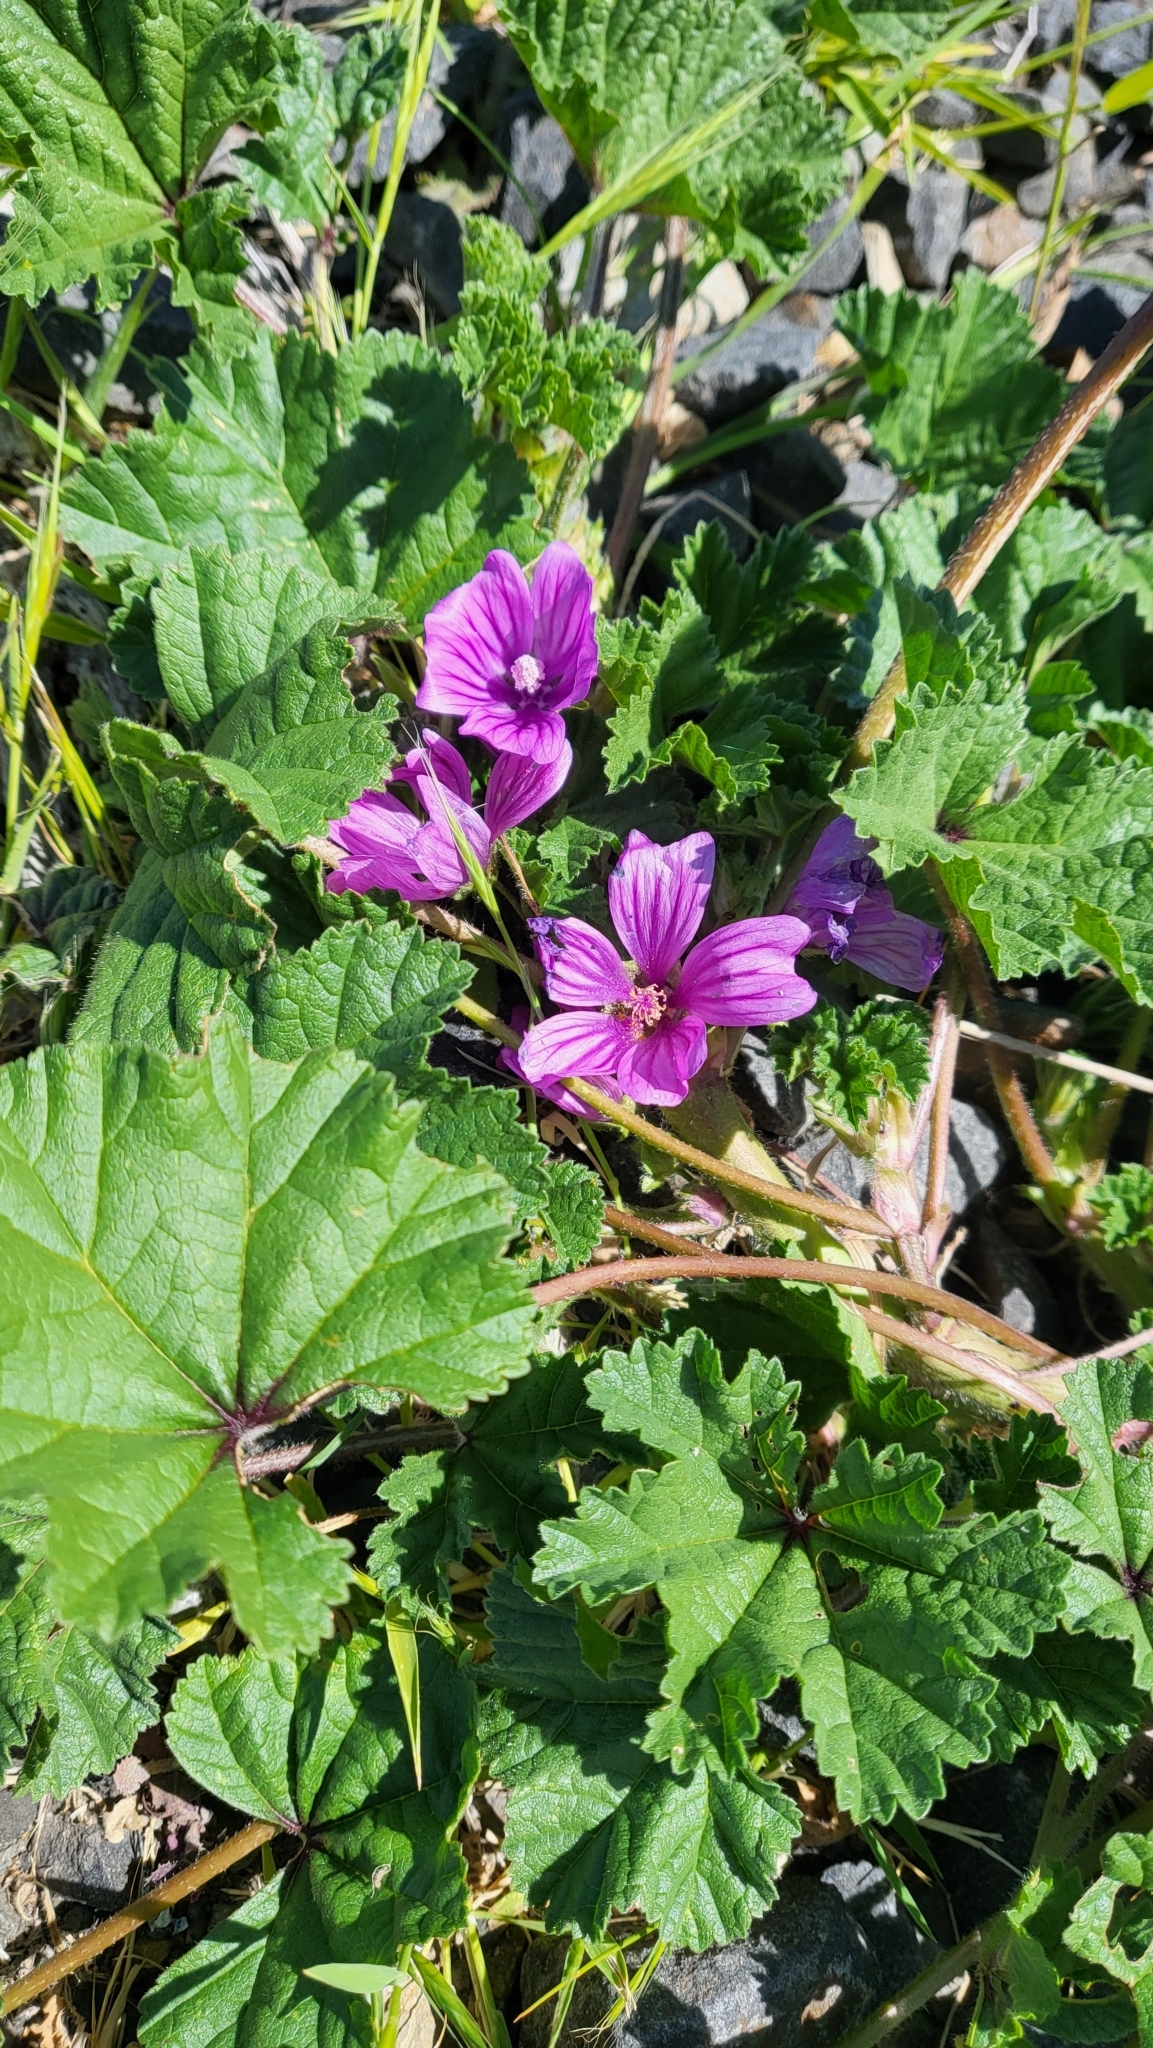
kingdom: Plantae
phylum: Tracheophyta
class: Magnoliopsida
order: Malvales
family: Malvaceae
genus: Malva
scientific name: Malva sylvestris
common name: Common mallow
